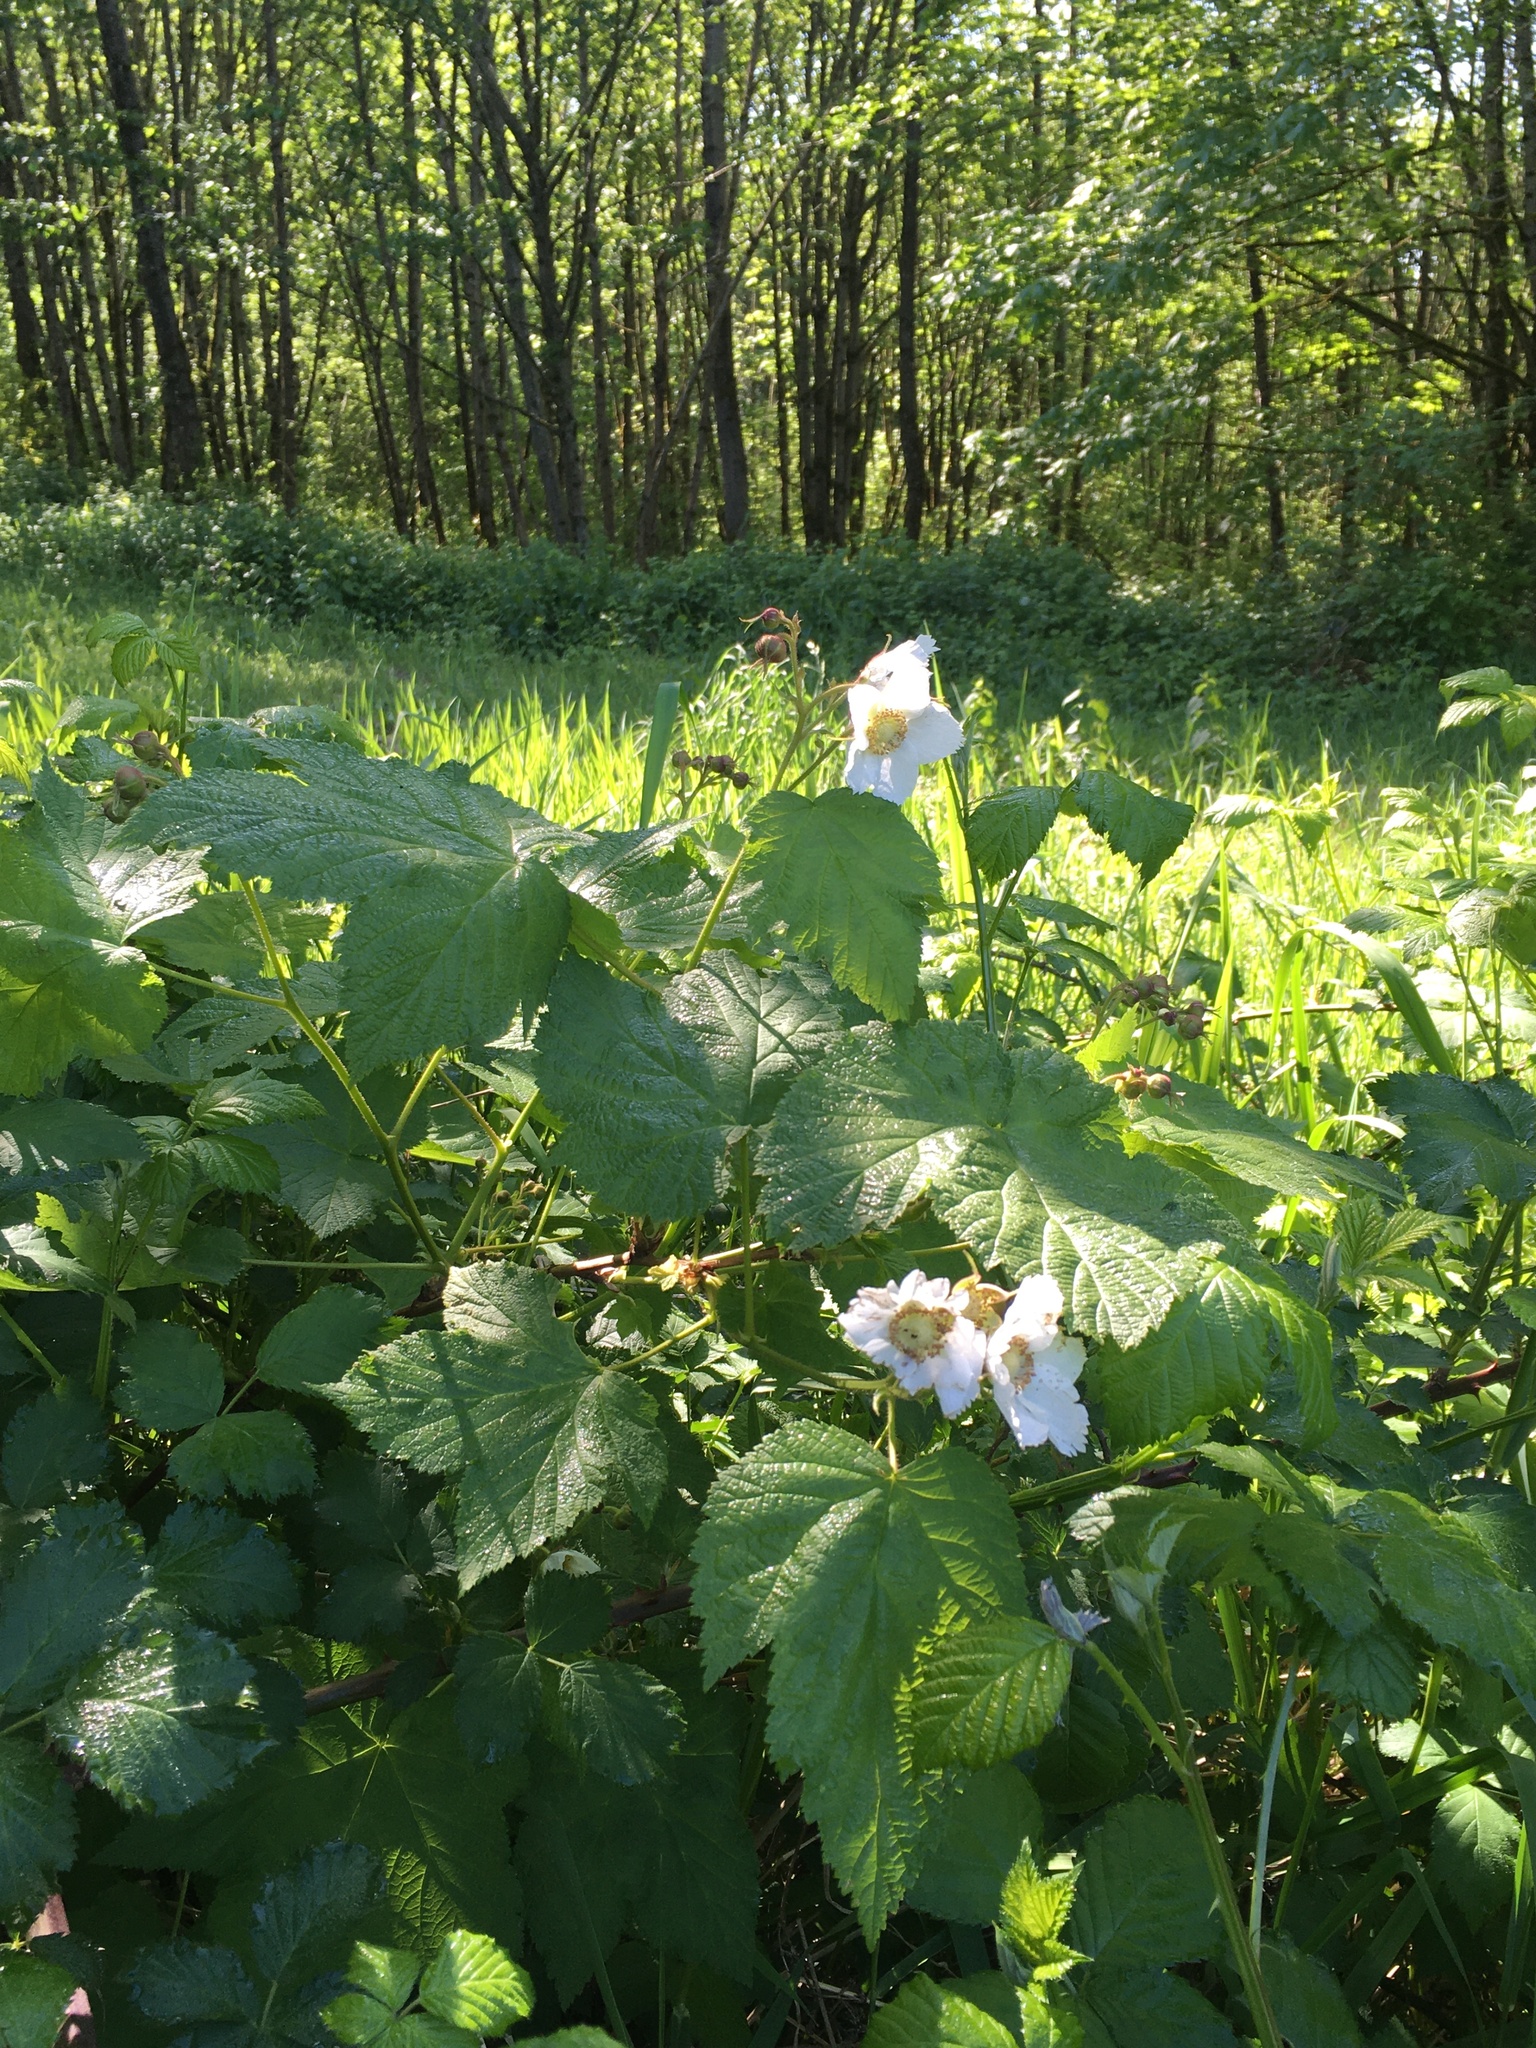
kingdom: Plantae
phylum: Tracheophyta
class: Magnoliopsida
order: Rosales
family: Rosaceae
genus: Rubus
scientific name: Rubus parviflorus
